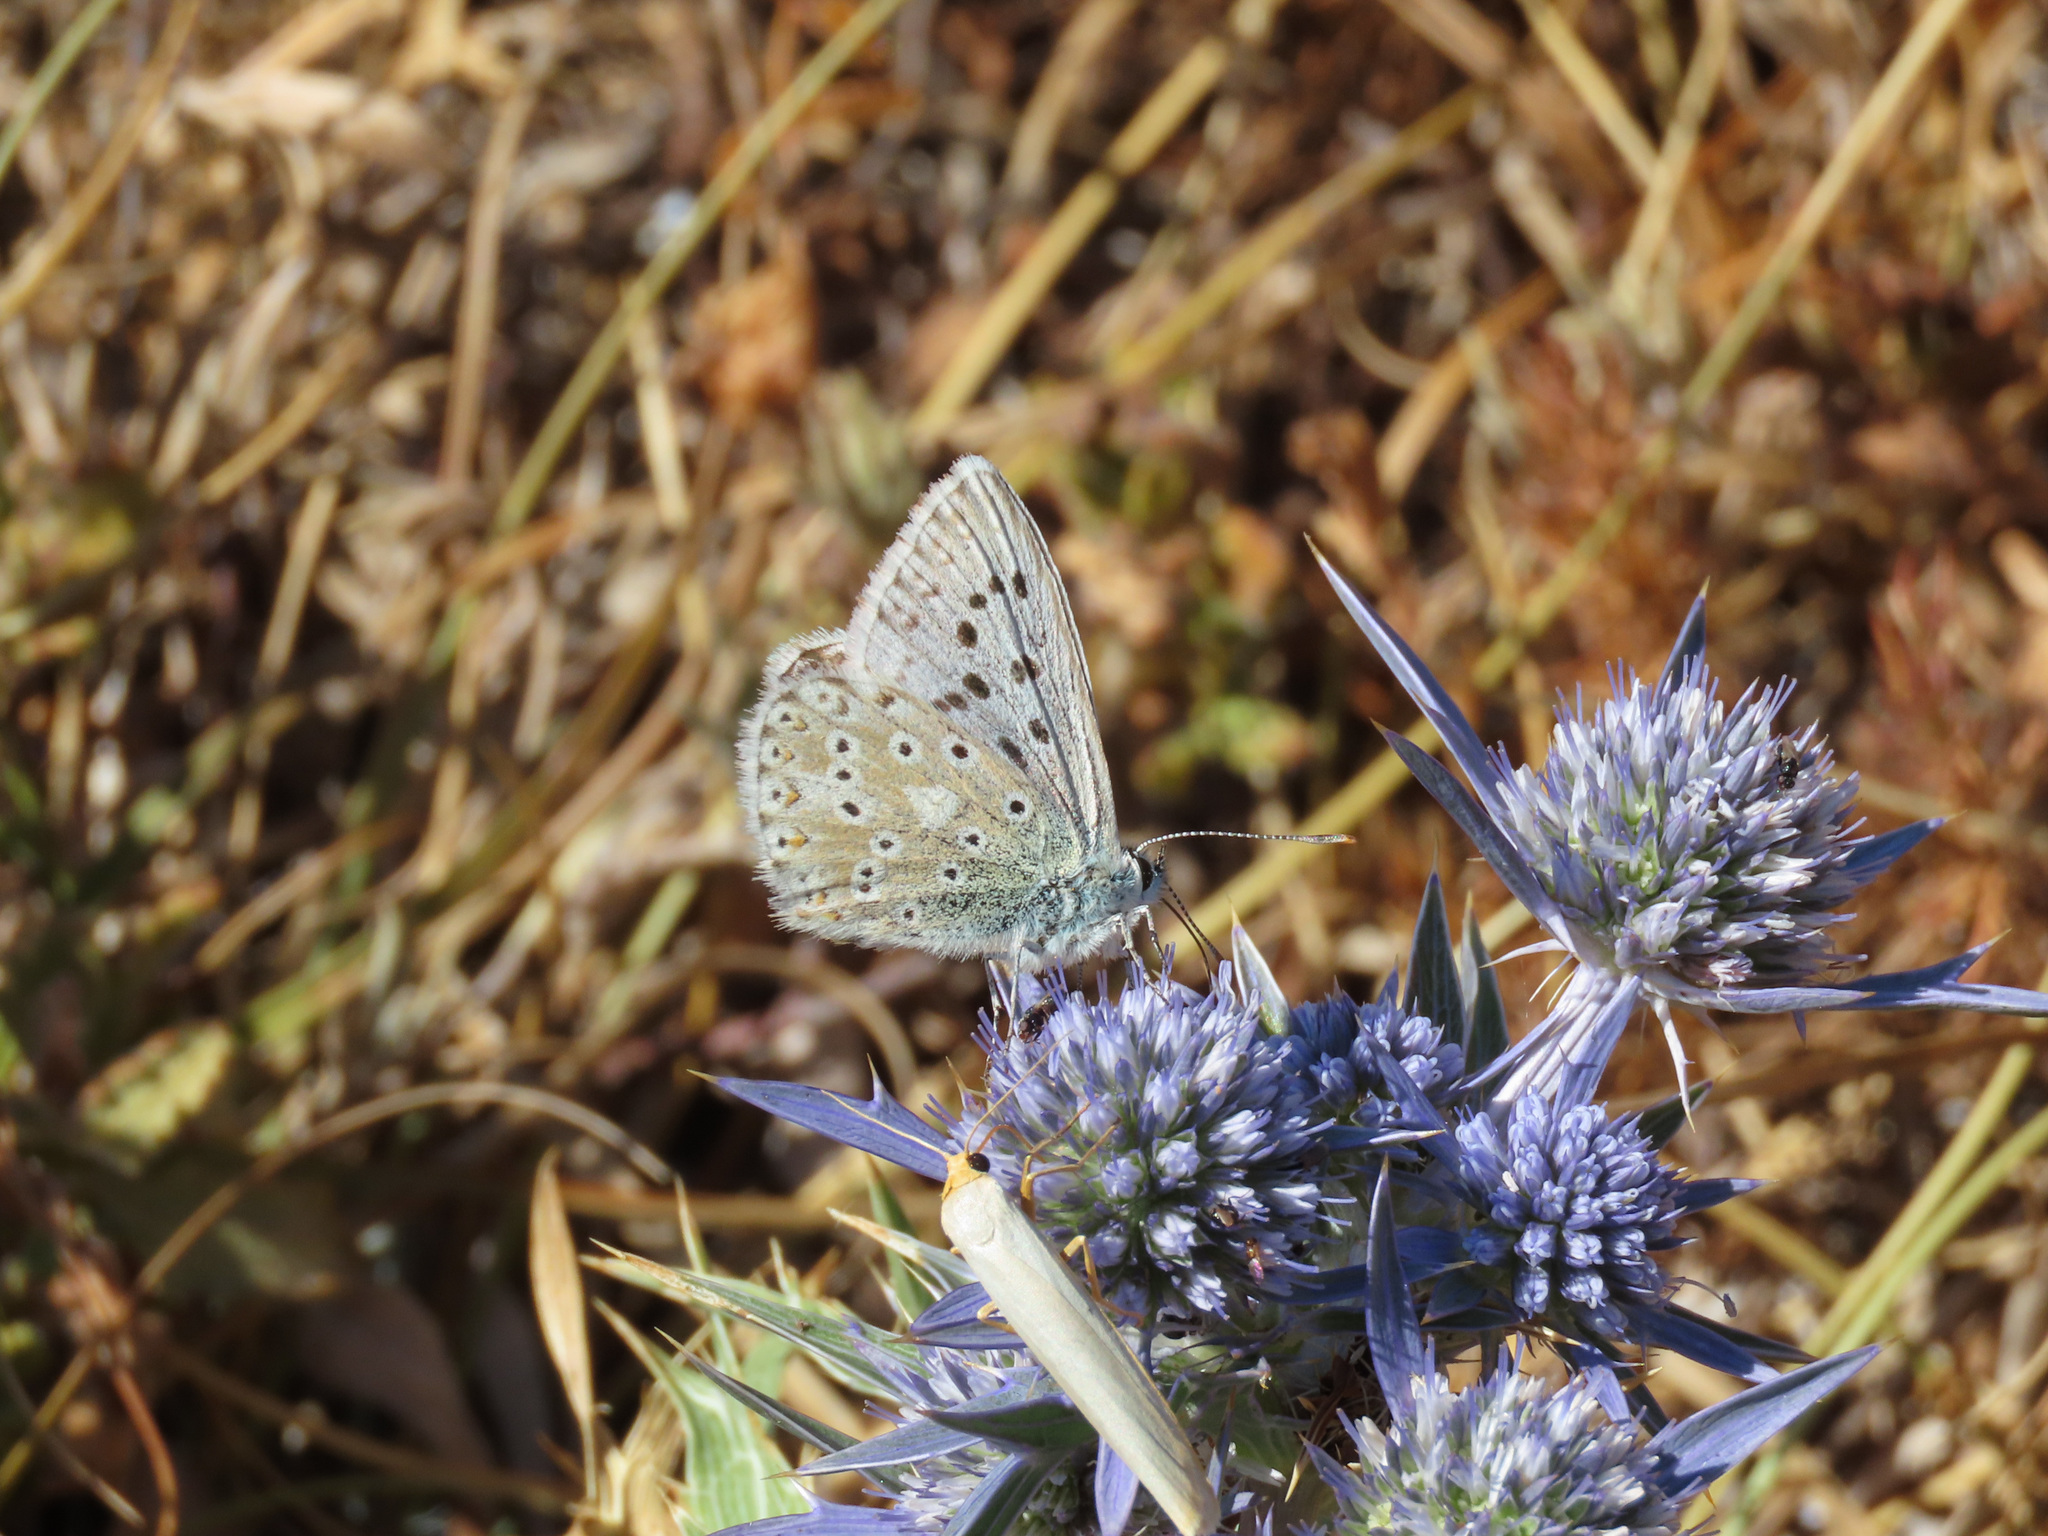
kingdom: Animalia
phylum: Arthropoda
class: Insecta
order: Lepidoptera
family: Lycaenidae
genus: Lysandra
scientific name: Lysandra coridon
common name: Chalkhill blue
